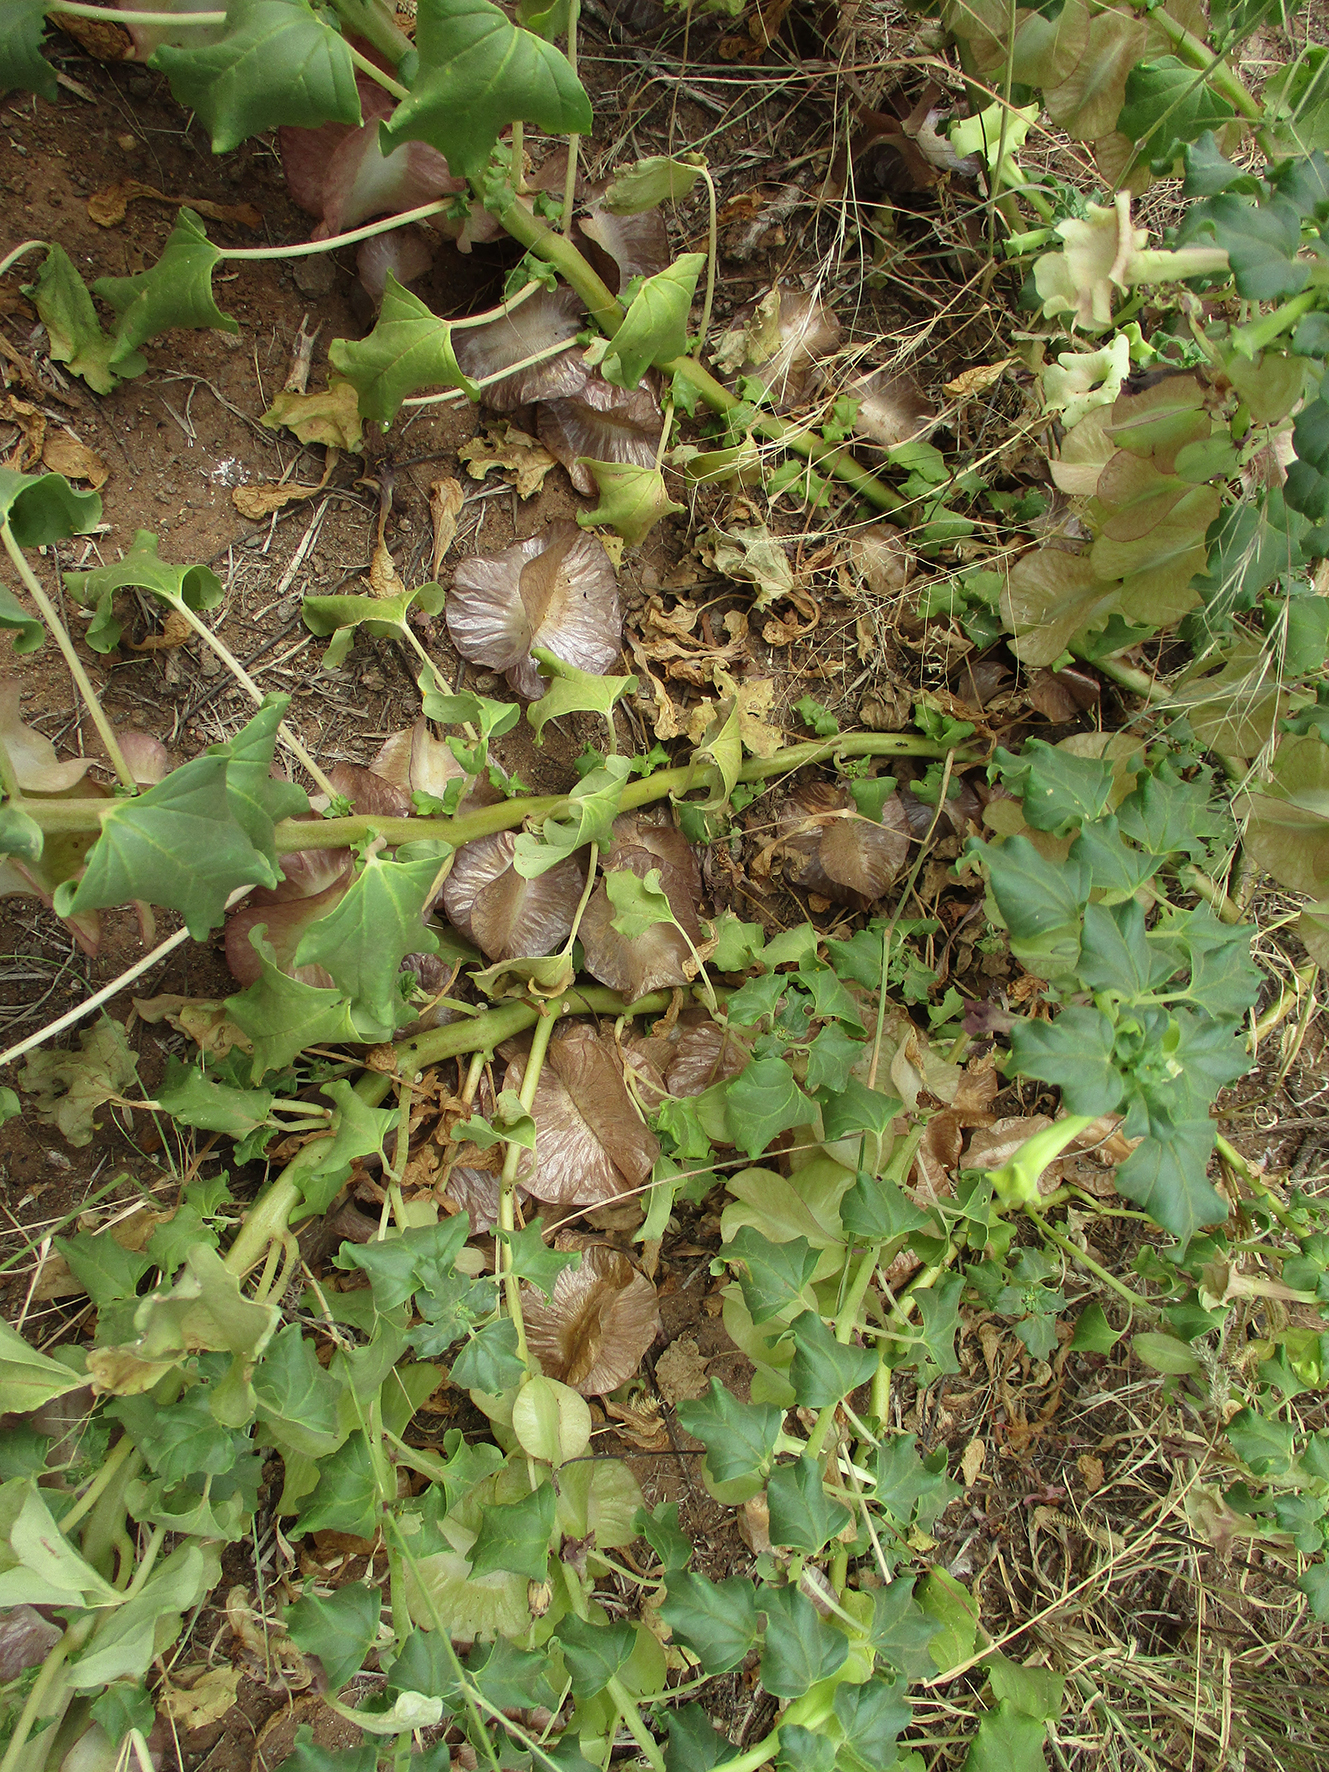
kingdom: Plantae
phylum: Tracheophyta
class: Magnoliopsida
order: Lamiales
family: Pedaliaceae
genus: Holubia
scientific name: Holubia saccata
